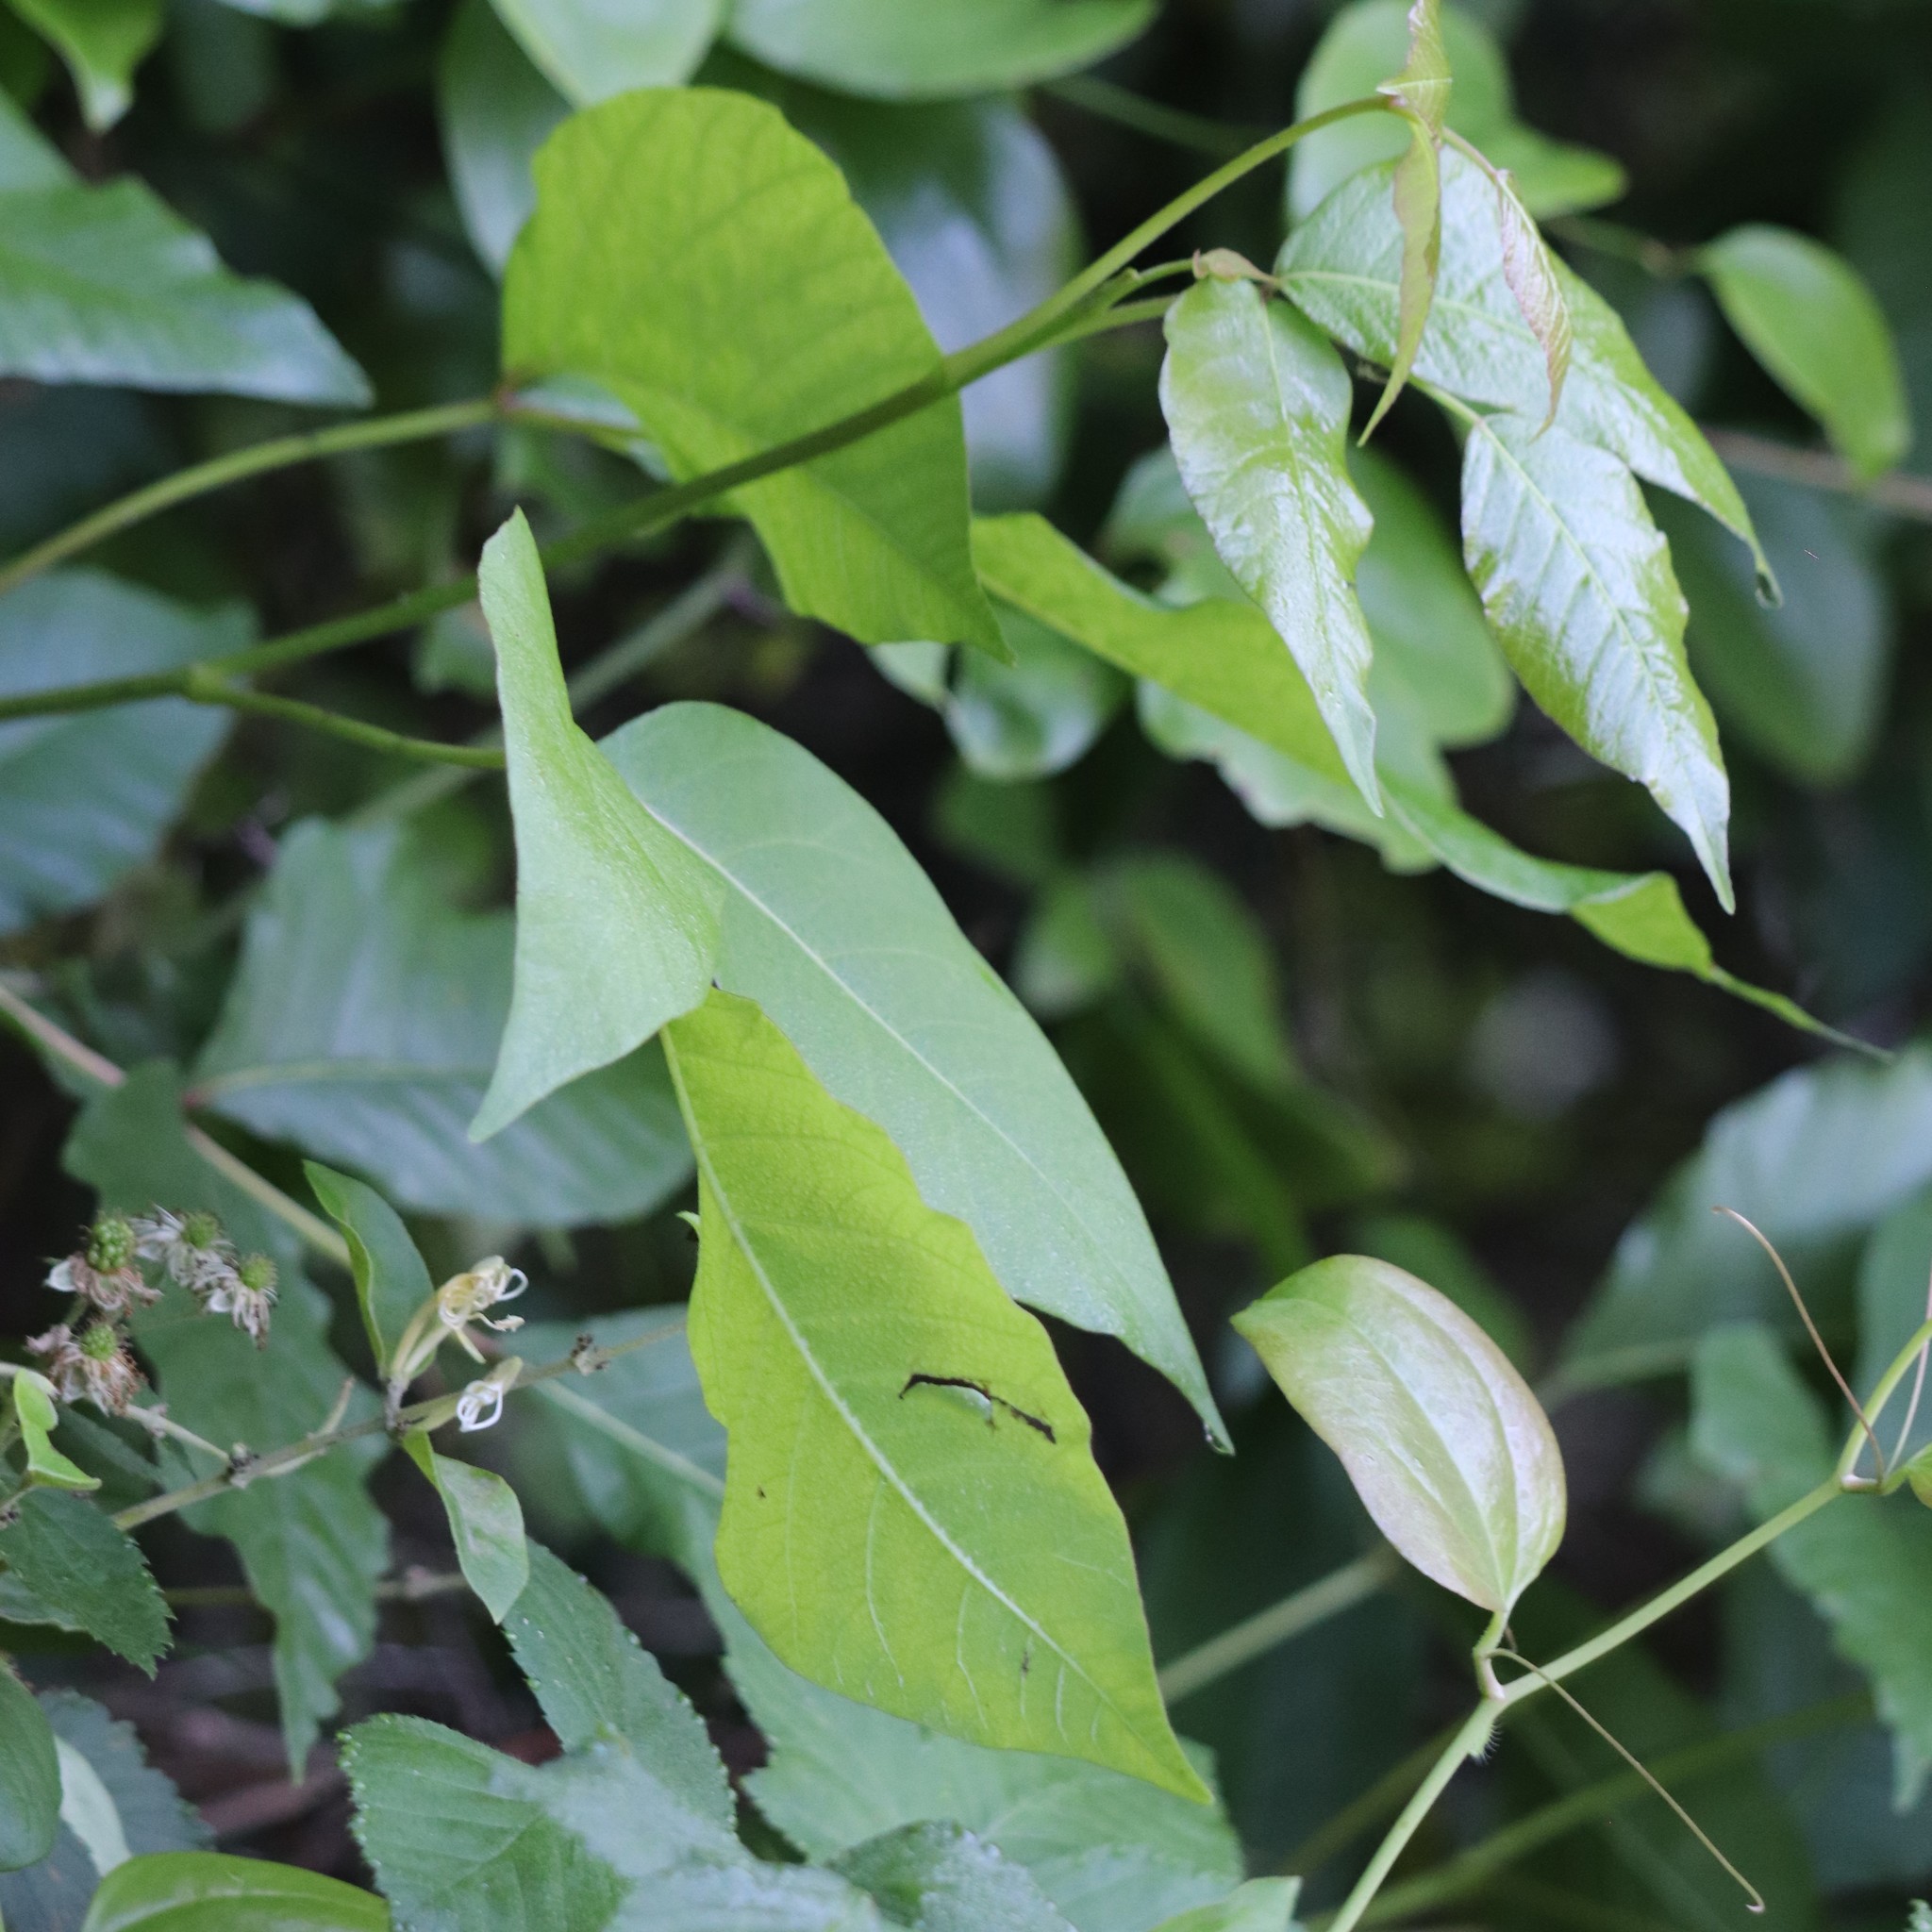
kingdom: Plantae
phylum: Tracheophyta
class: Magnoliopsida
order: Sapindales
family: Anacardiaceae
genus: Toxicodendron
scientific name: Toxicodendron radicans
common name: Poison ivy
